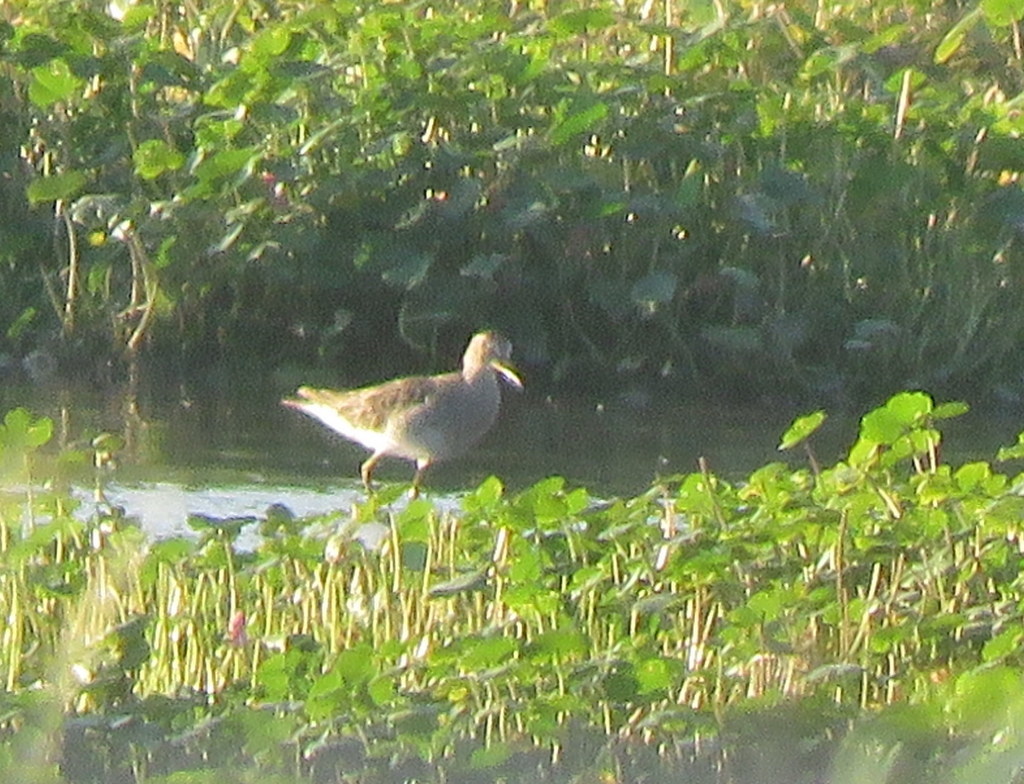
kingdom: Animalia
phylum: Chordata
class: Aves
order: Charadriiformes
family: Scolopacidae
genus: Calidris
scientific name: Calidris melanotos
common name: Pectoral sandpiper
